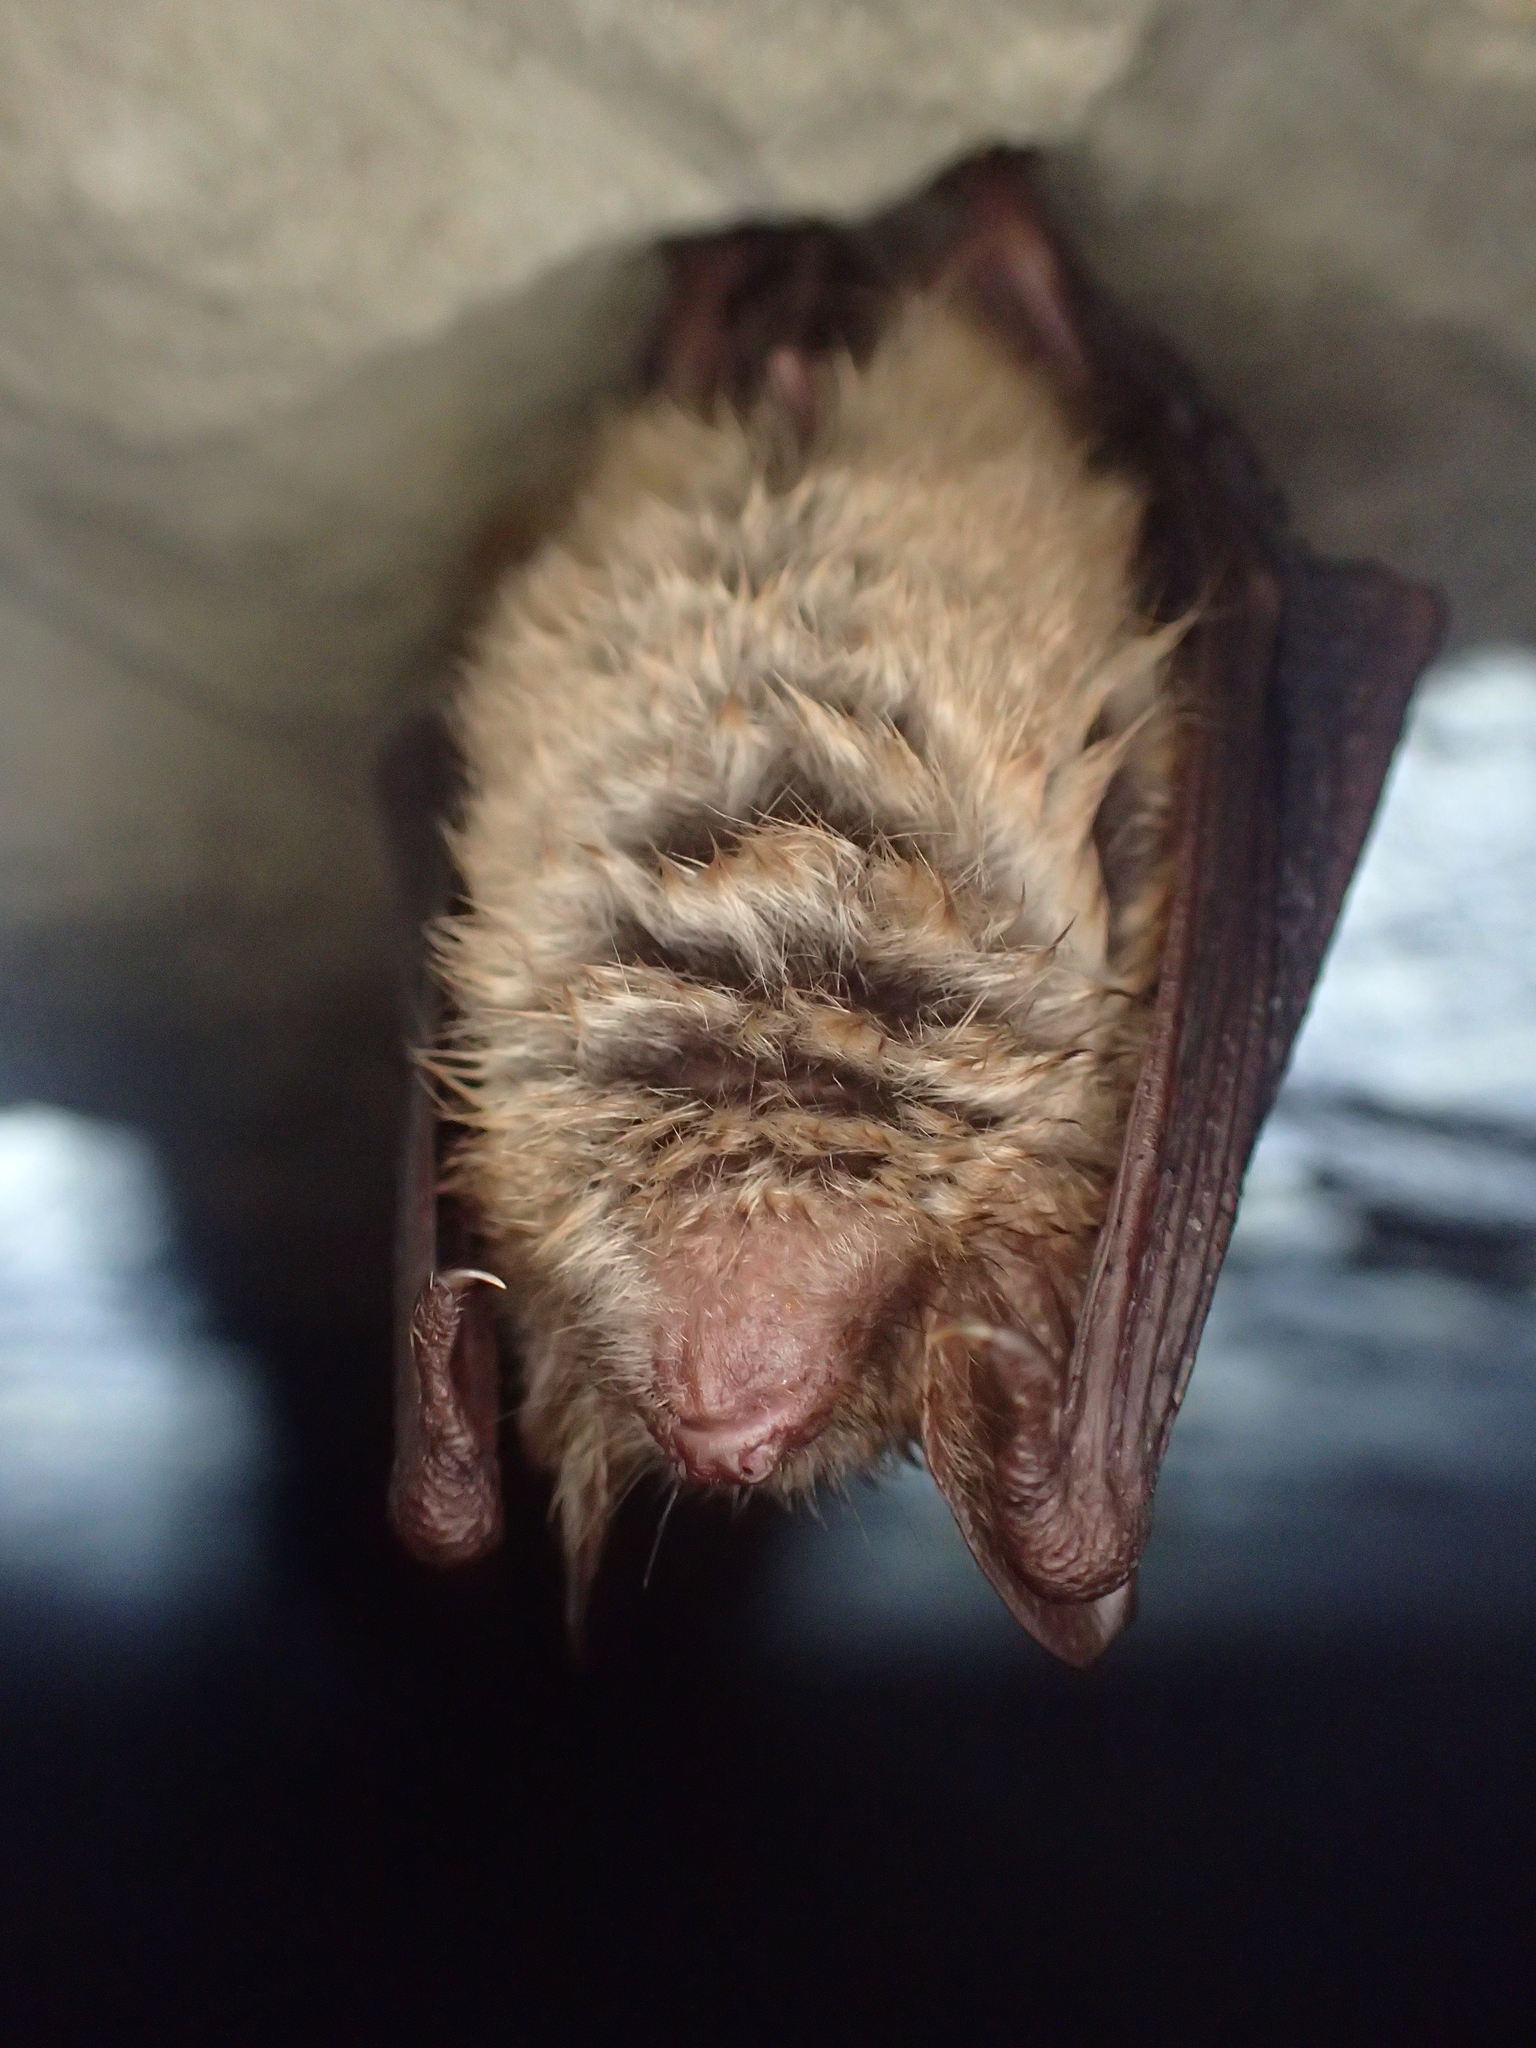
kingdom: Animalia
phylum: Chordata
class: Mammalia
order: Chiroptera
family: Vespertilionidae
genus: Myotis
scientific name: Myotis emarginatus
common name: Geoffroy's bat
